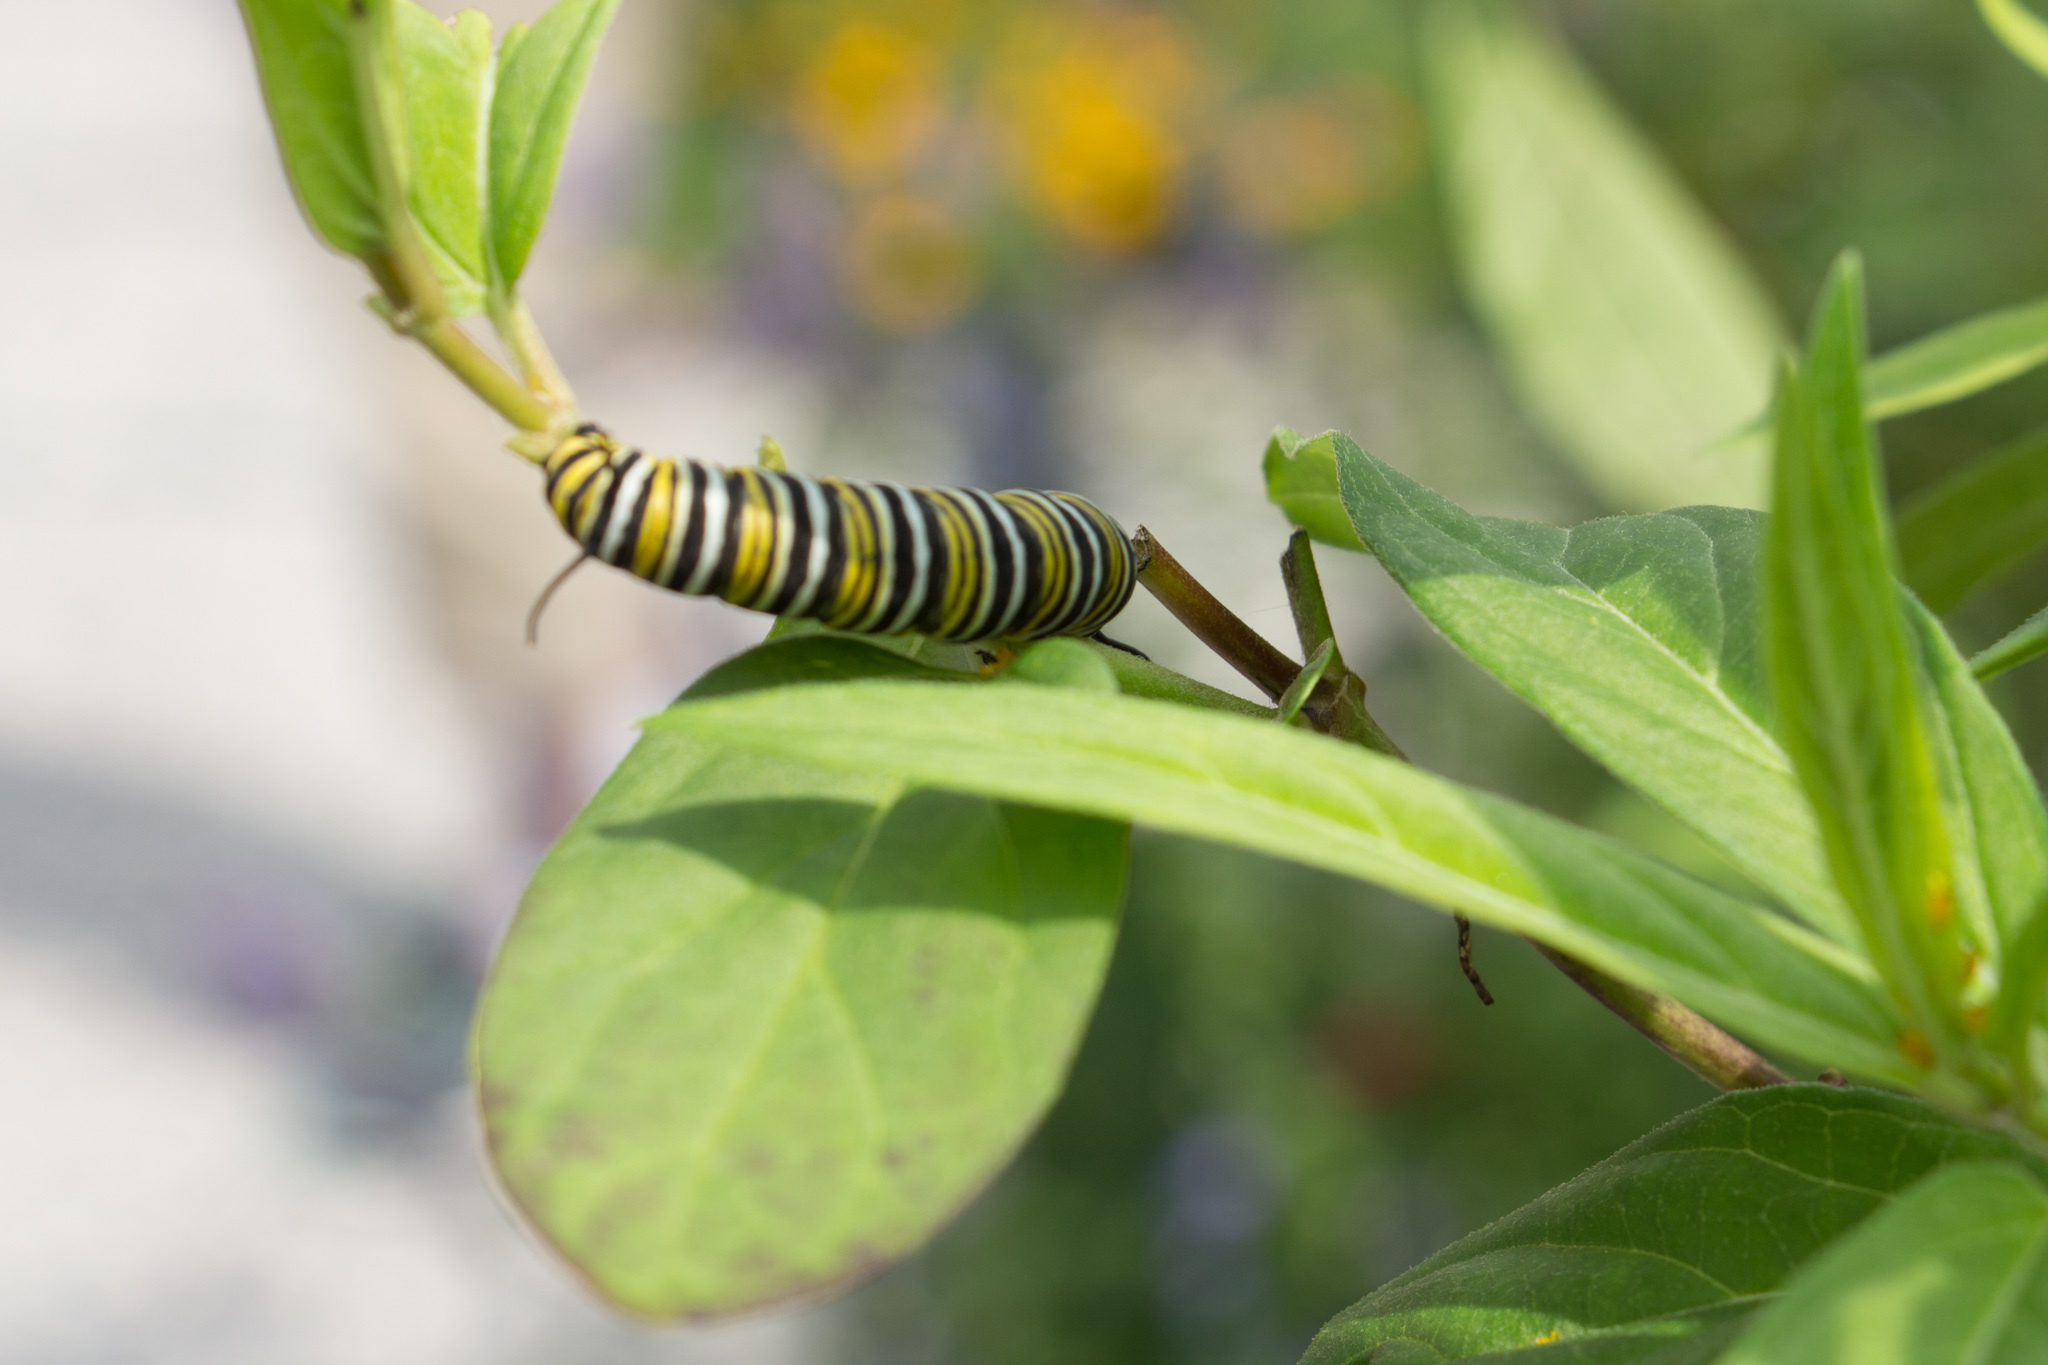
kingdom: Animalia
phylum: Arthropoda
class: Insecta
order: Lepidoptera
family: Nymphalidae
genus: Danaus
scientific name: Danaus plexippus
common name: Monarch
